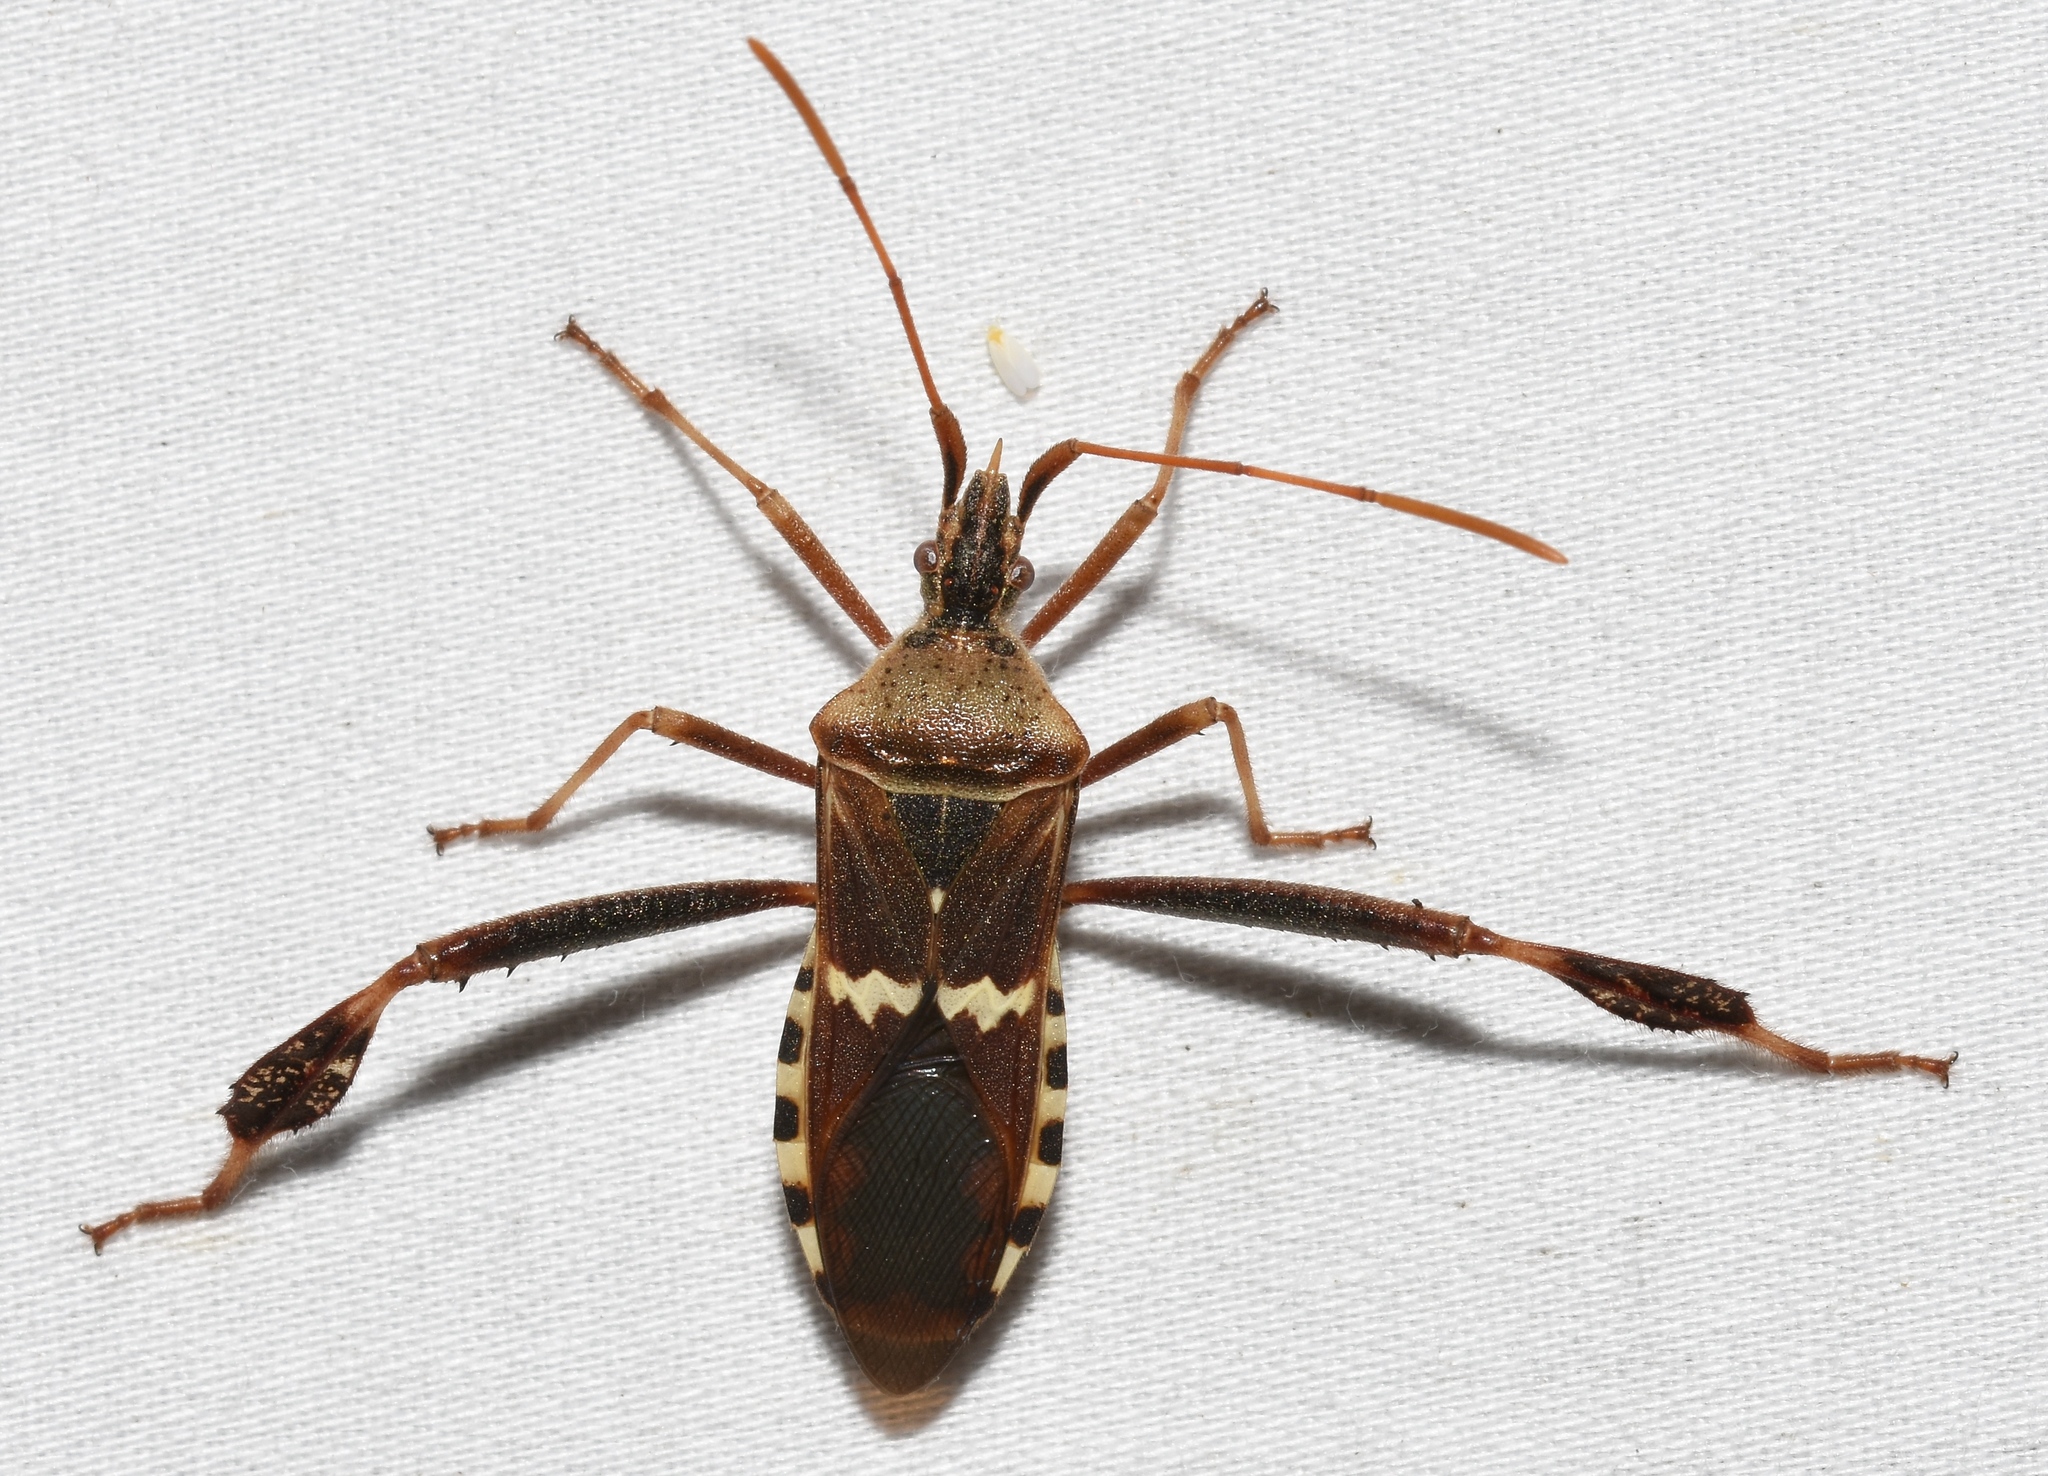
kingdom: Animalia
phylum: Arthropoda
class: Insecta
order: Hemiptera
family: Coreidae
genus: Leptoglossus
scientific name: Leptoglossus clypealis
